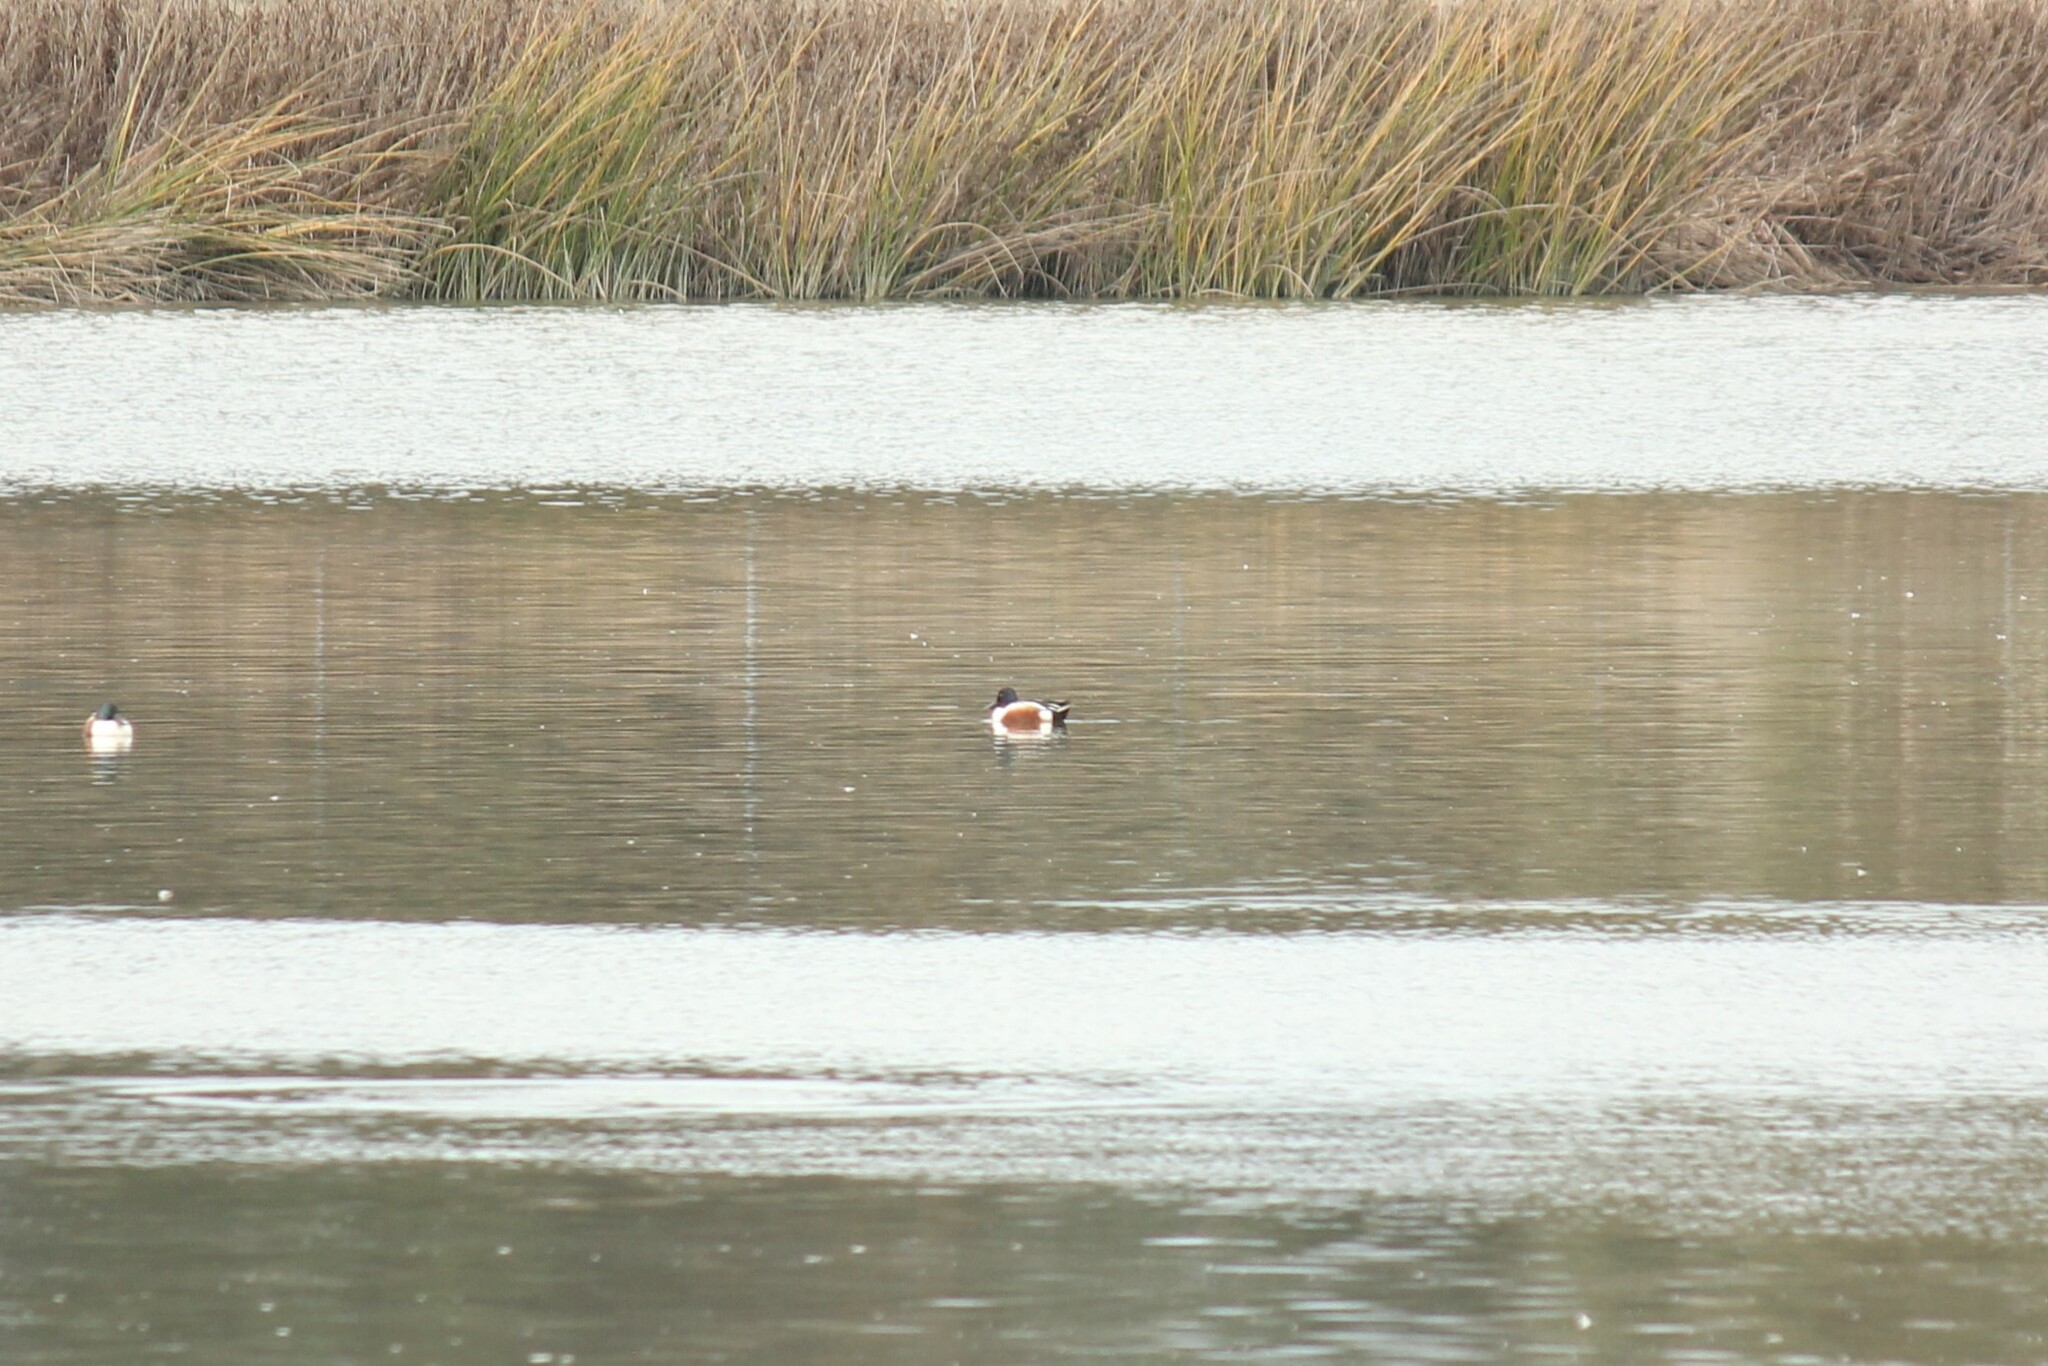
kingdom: Animalia
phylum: Chordata
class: Aves
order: Anseriformes
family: Anatidae
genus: Spatula
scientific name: Spatula clypeata
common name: Northern shoveler
